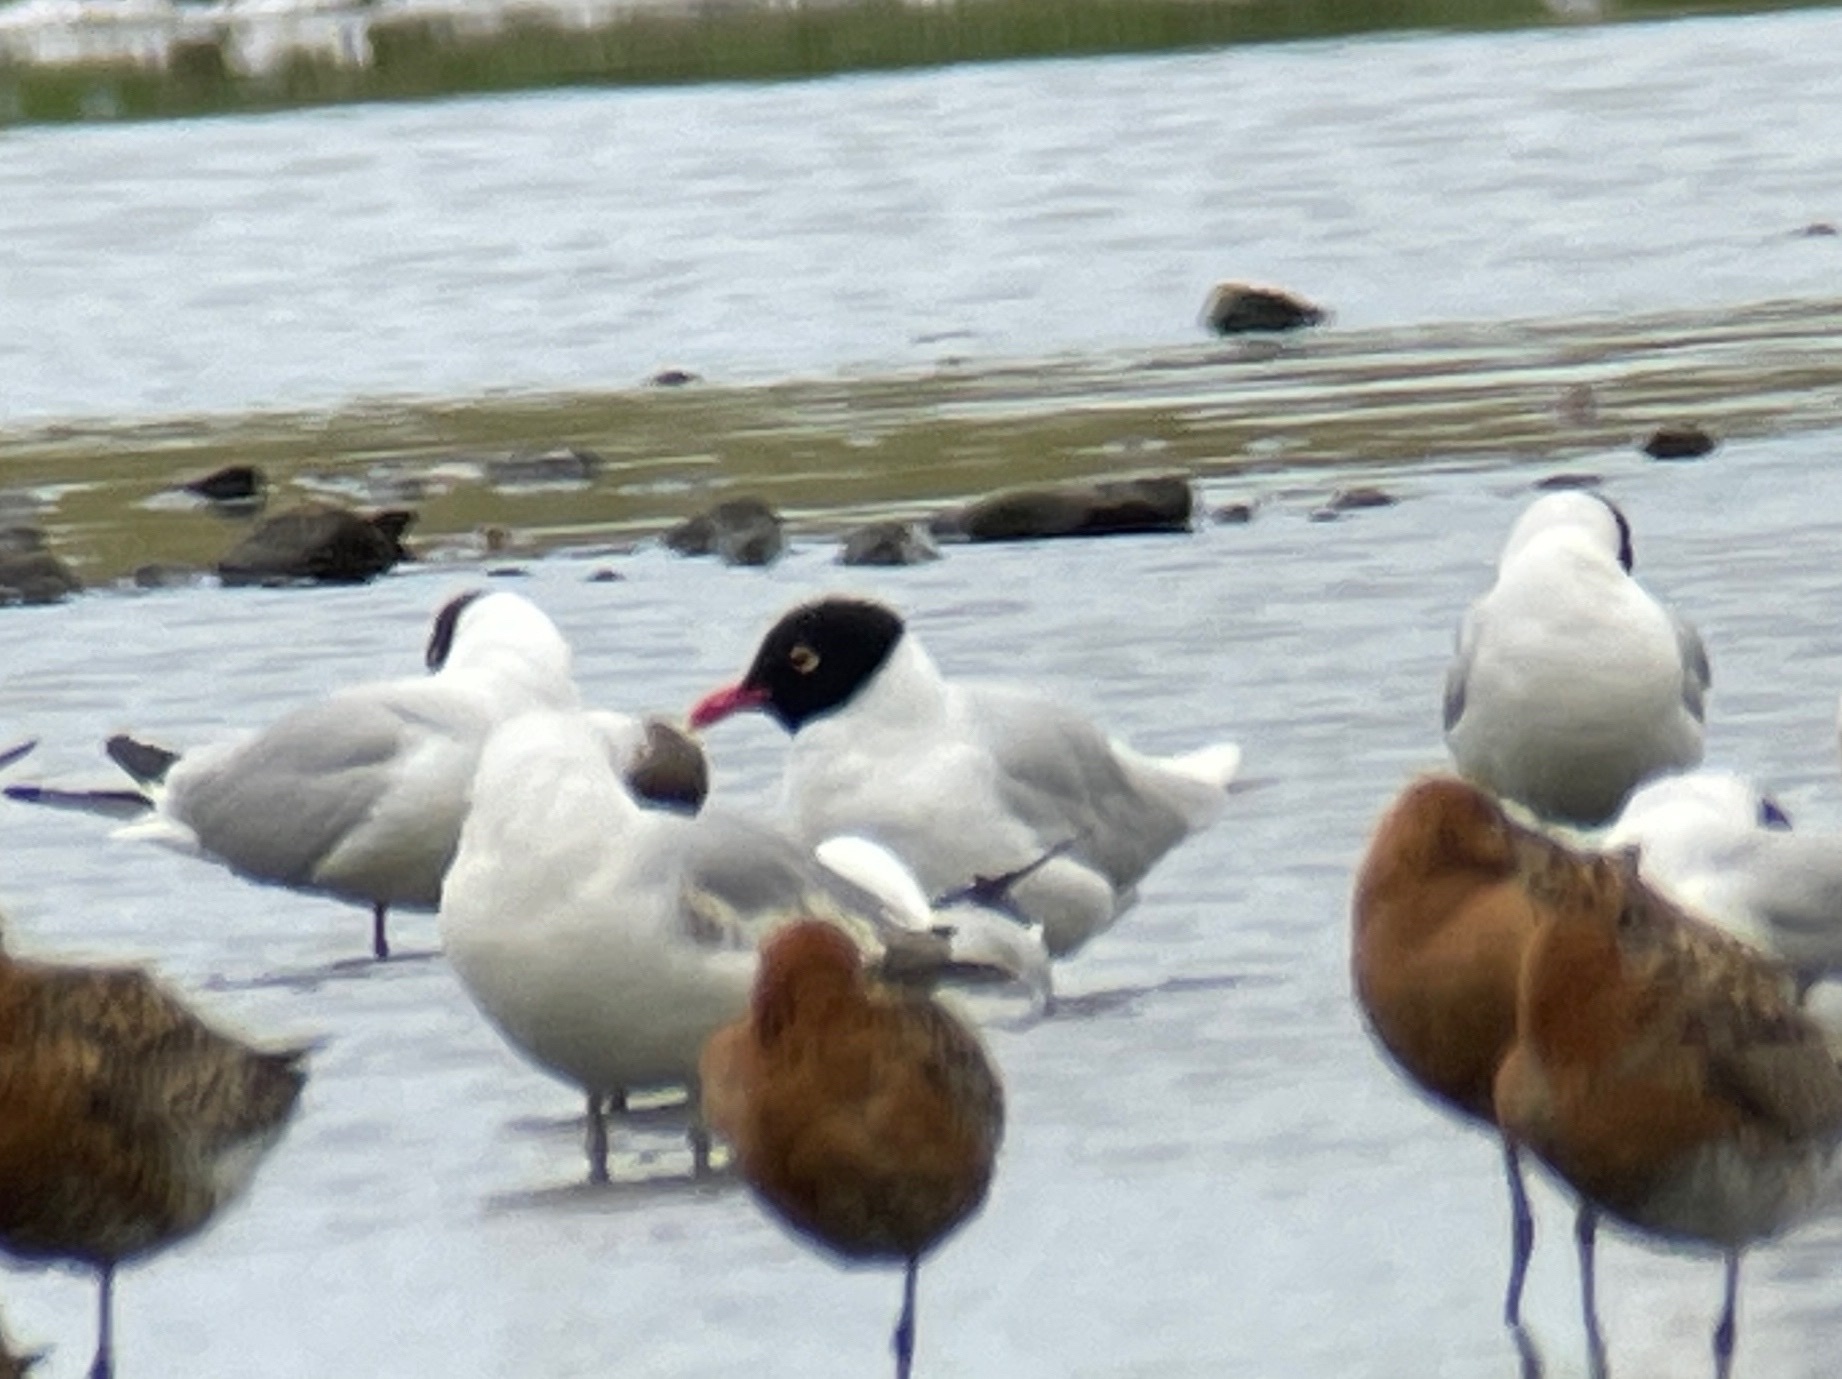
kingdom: Animalia
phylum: Chordata
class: Aves
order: Charadriiformes
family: Laridae
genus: Ichthyaetus
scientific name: Ichthyaetus melanocephalus
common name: Mediterranean gull
